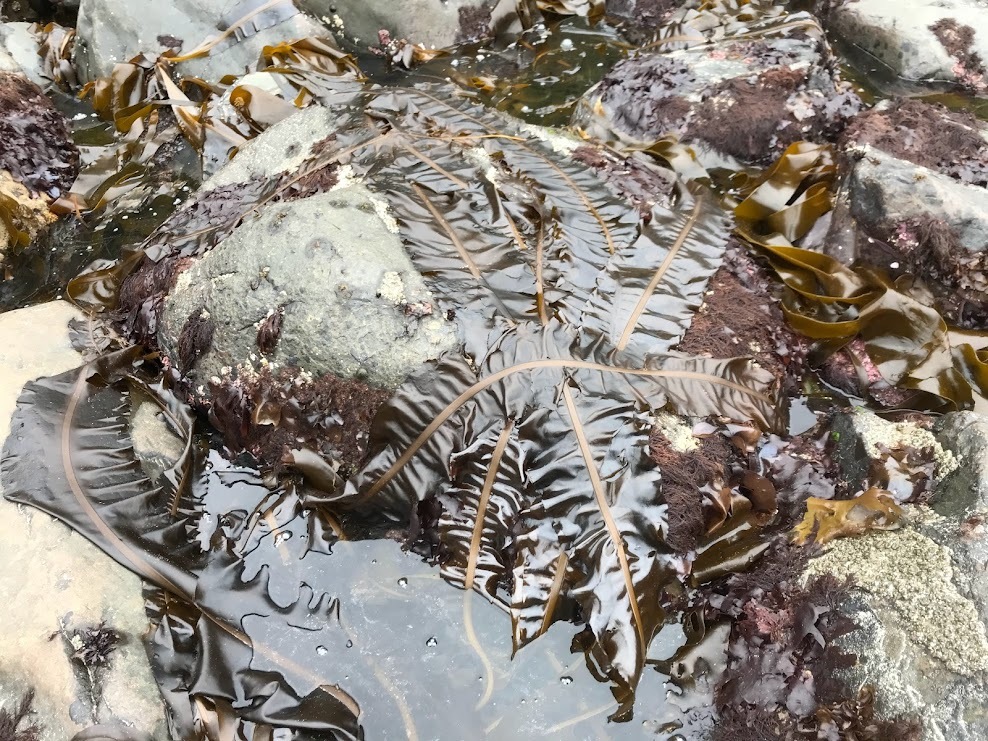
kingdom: Chromista
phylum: Ochrophyta
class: Phaeophyceae
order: Laminariales
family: Alariaceae
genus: Alaria
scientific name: Alaria marginata
